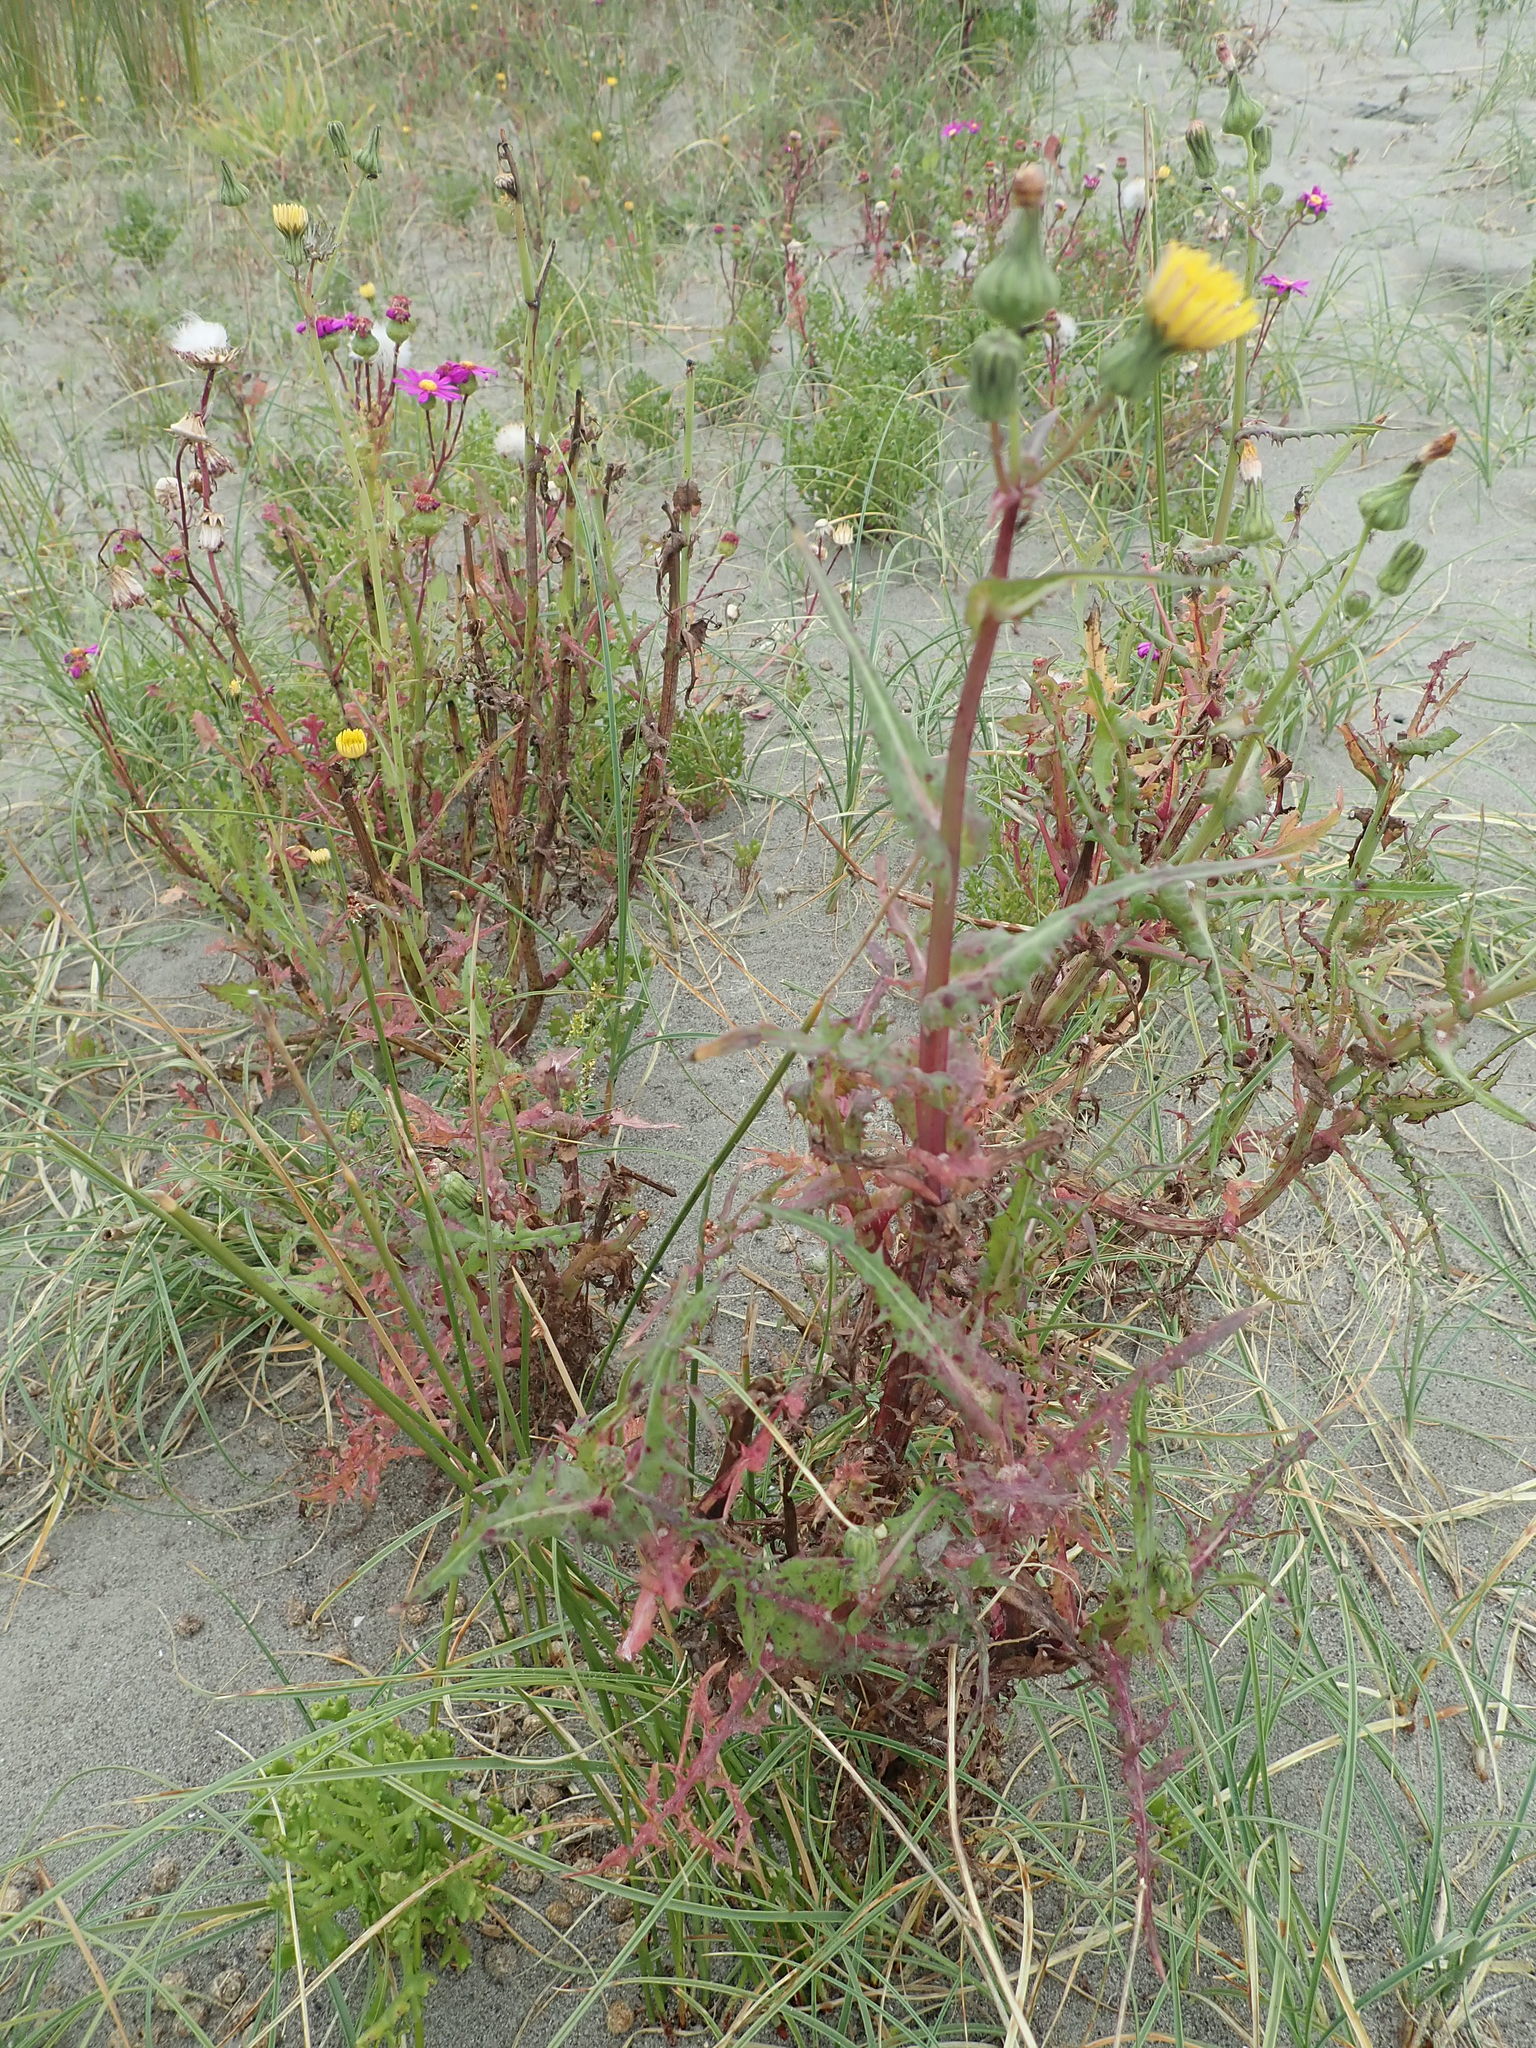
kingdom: Plantae
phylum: Tracheophyta
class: Magnoliopsida
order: Asterales
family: Asteraceae
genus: Sonchus
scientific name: Sonchus oleraceus
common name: Common sowthistle
